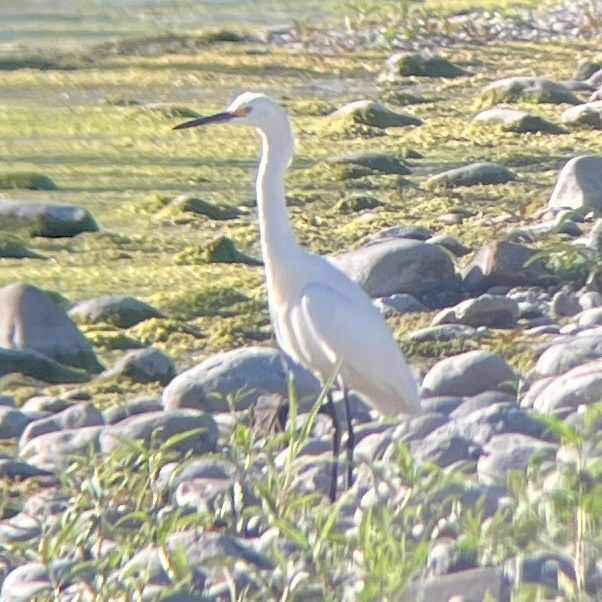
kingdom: Animalia
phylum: Chordata
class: Aves
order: Pelecaniformes
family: Ardeidae
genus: Egretta
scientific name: Egretta thula
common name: Snowy egret
